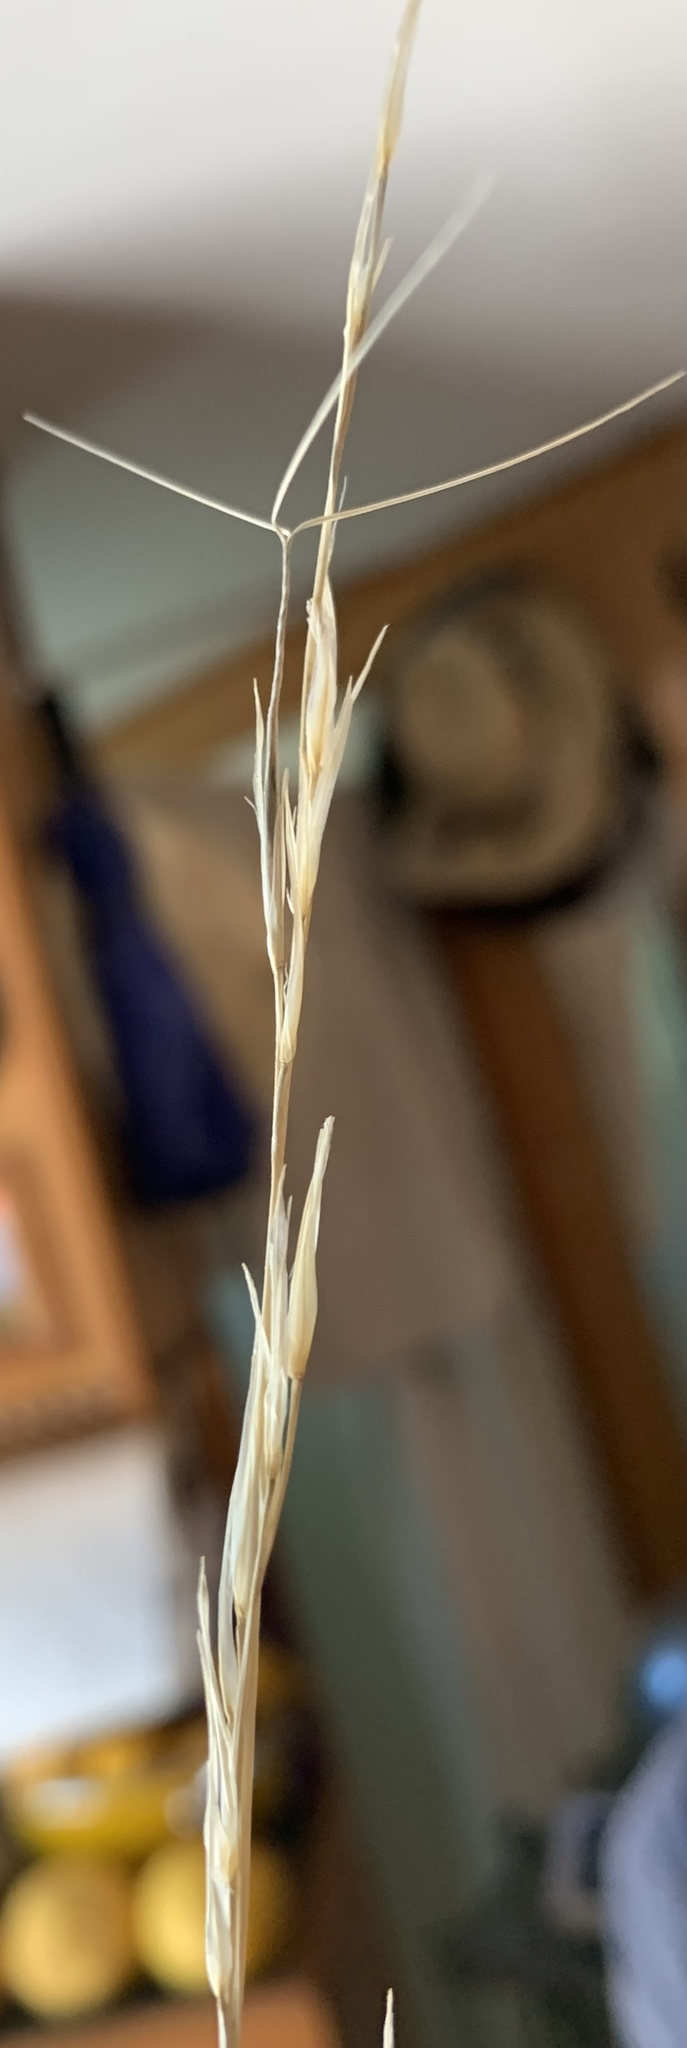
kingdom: Plantae
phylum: Tracheophyta
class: Liliopsida
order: Poales
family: Poaceae
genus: Aristida
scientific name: Aristida arizonica
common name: Arizona threeawn
